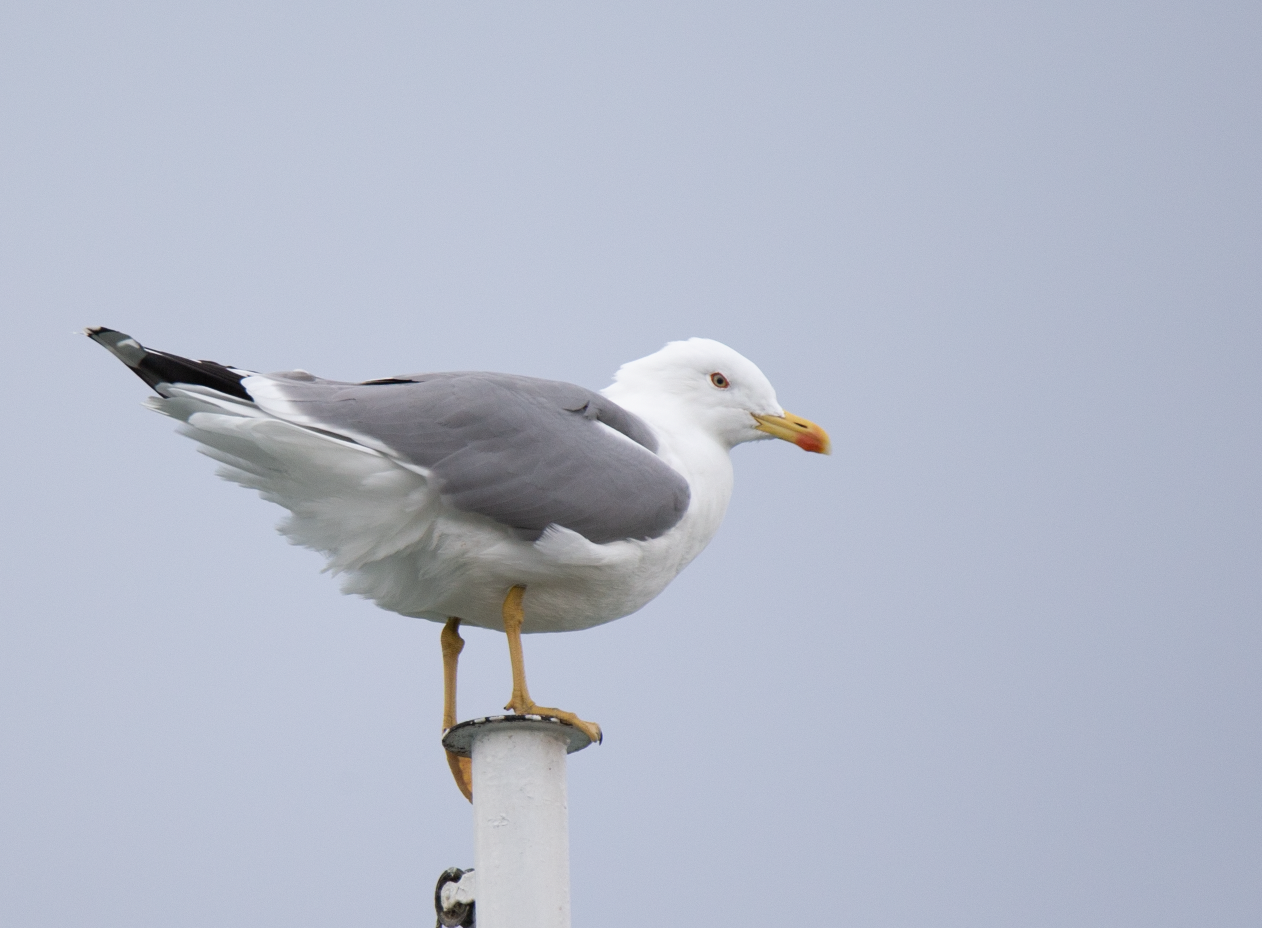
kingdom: Animalia
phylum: Chordata
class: Aves
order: Charadriiformes
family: Laridae
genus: Larus
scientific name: Larus michahellis
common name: Yellow-legged gull
